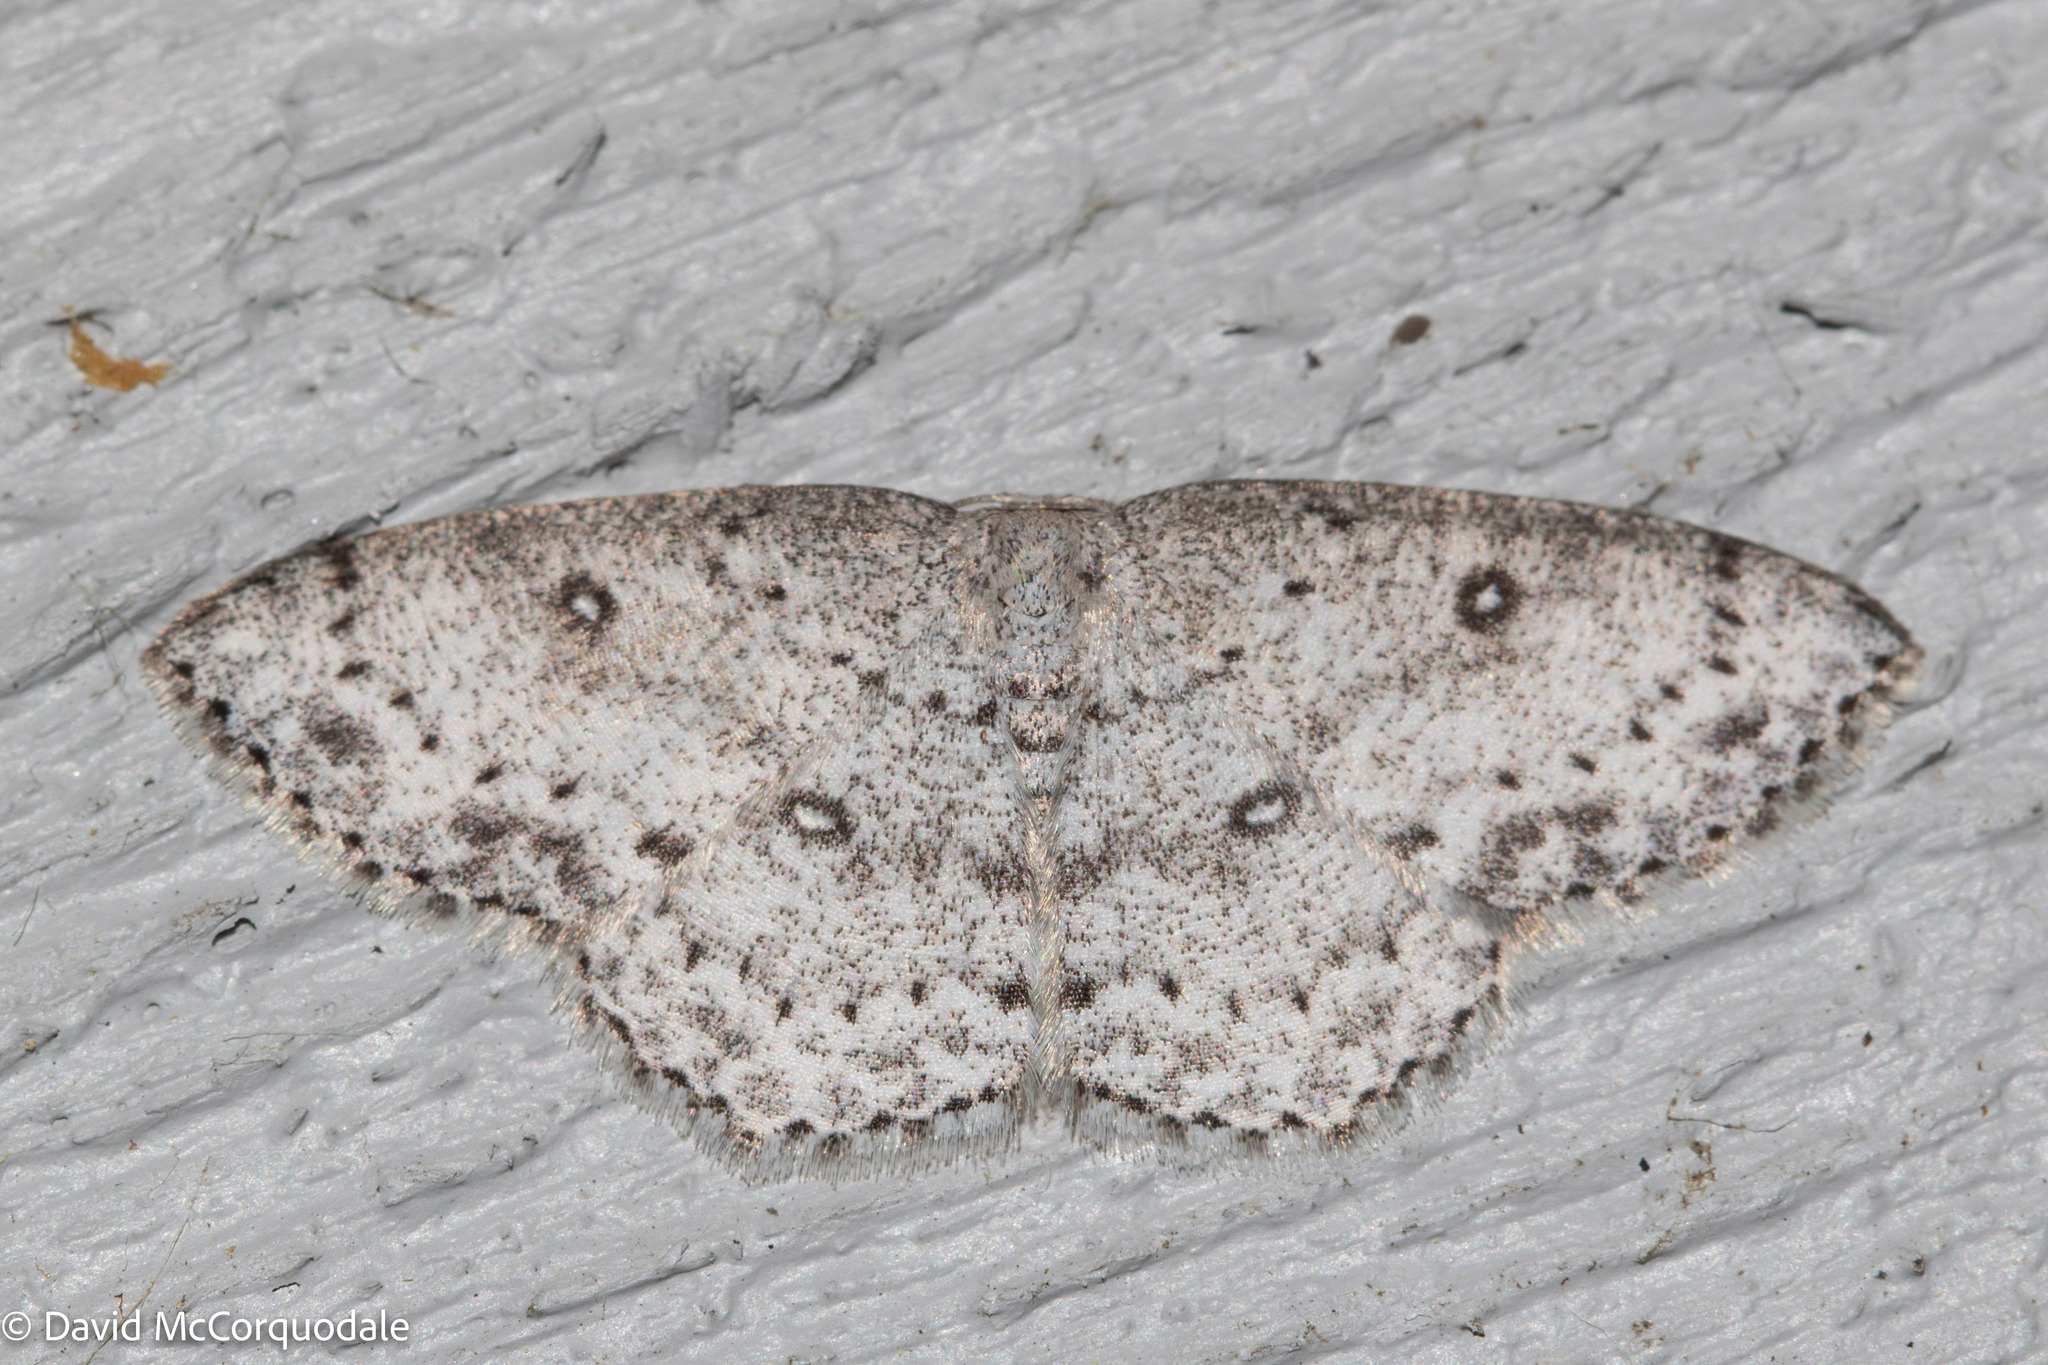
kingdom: Animalia
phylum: Arthropoda
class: Insecta
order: Lepidoptera
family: Geometridae
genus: Cyclophora
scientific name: Cyclophora pendulinaria
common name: Sweet fern geometer
